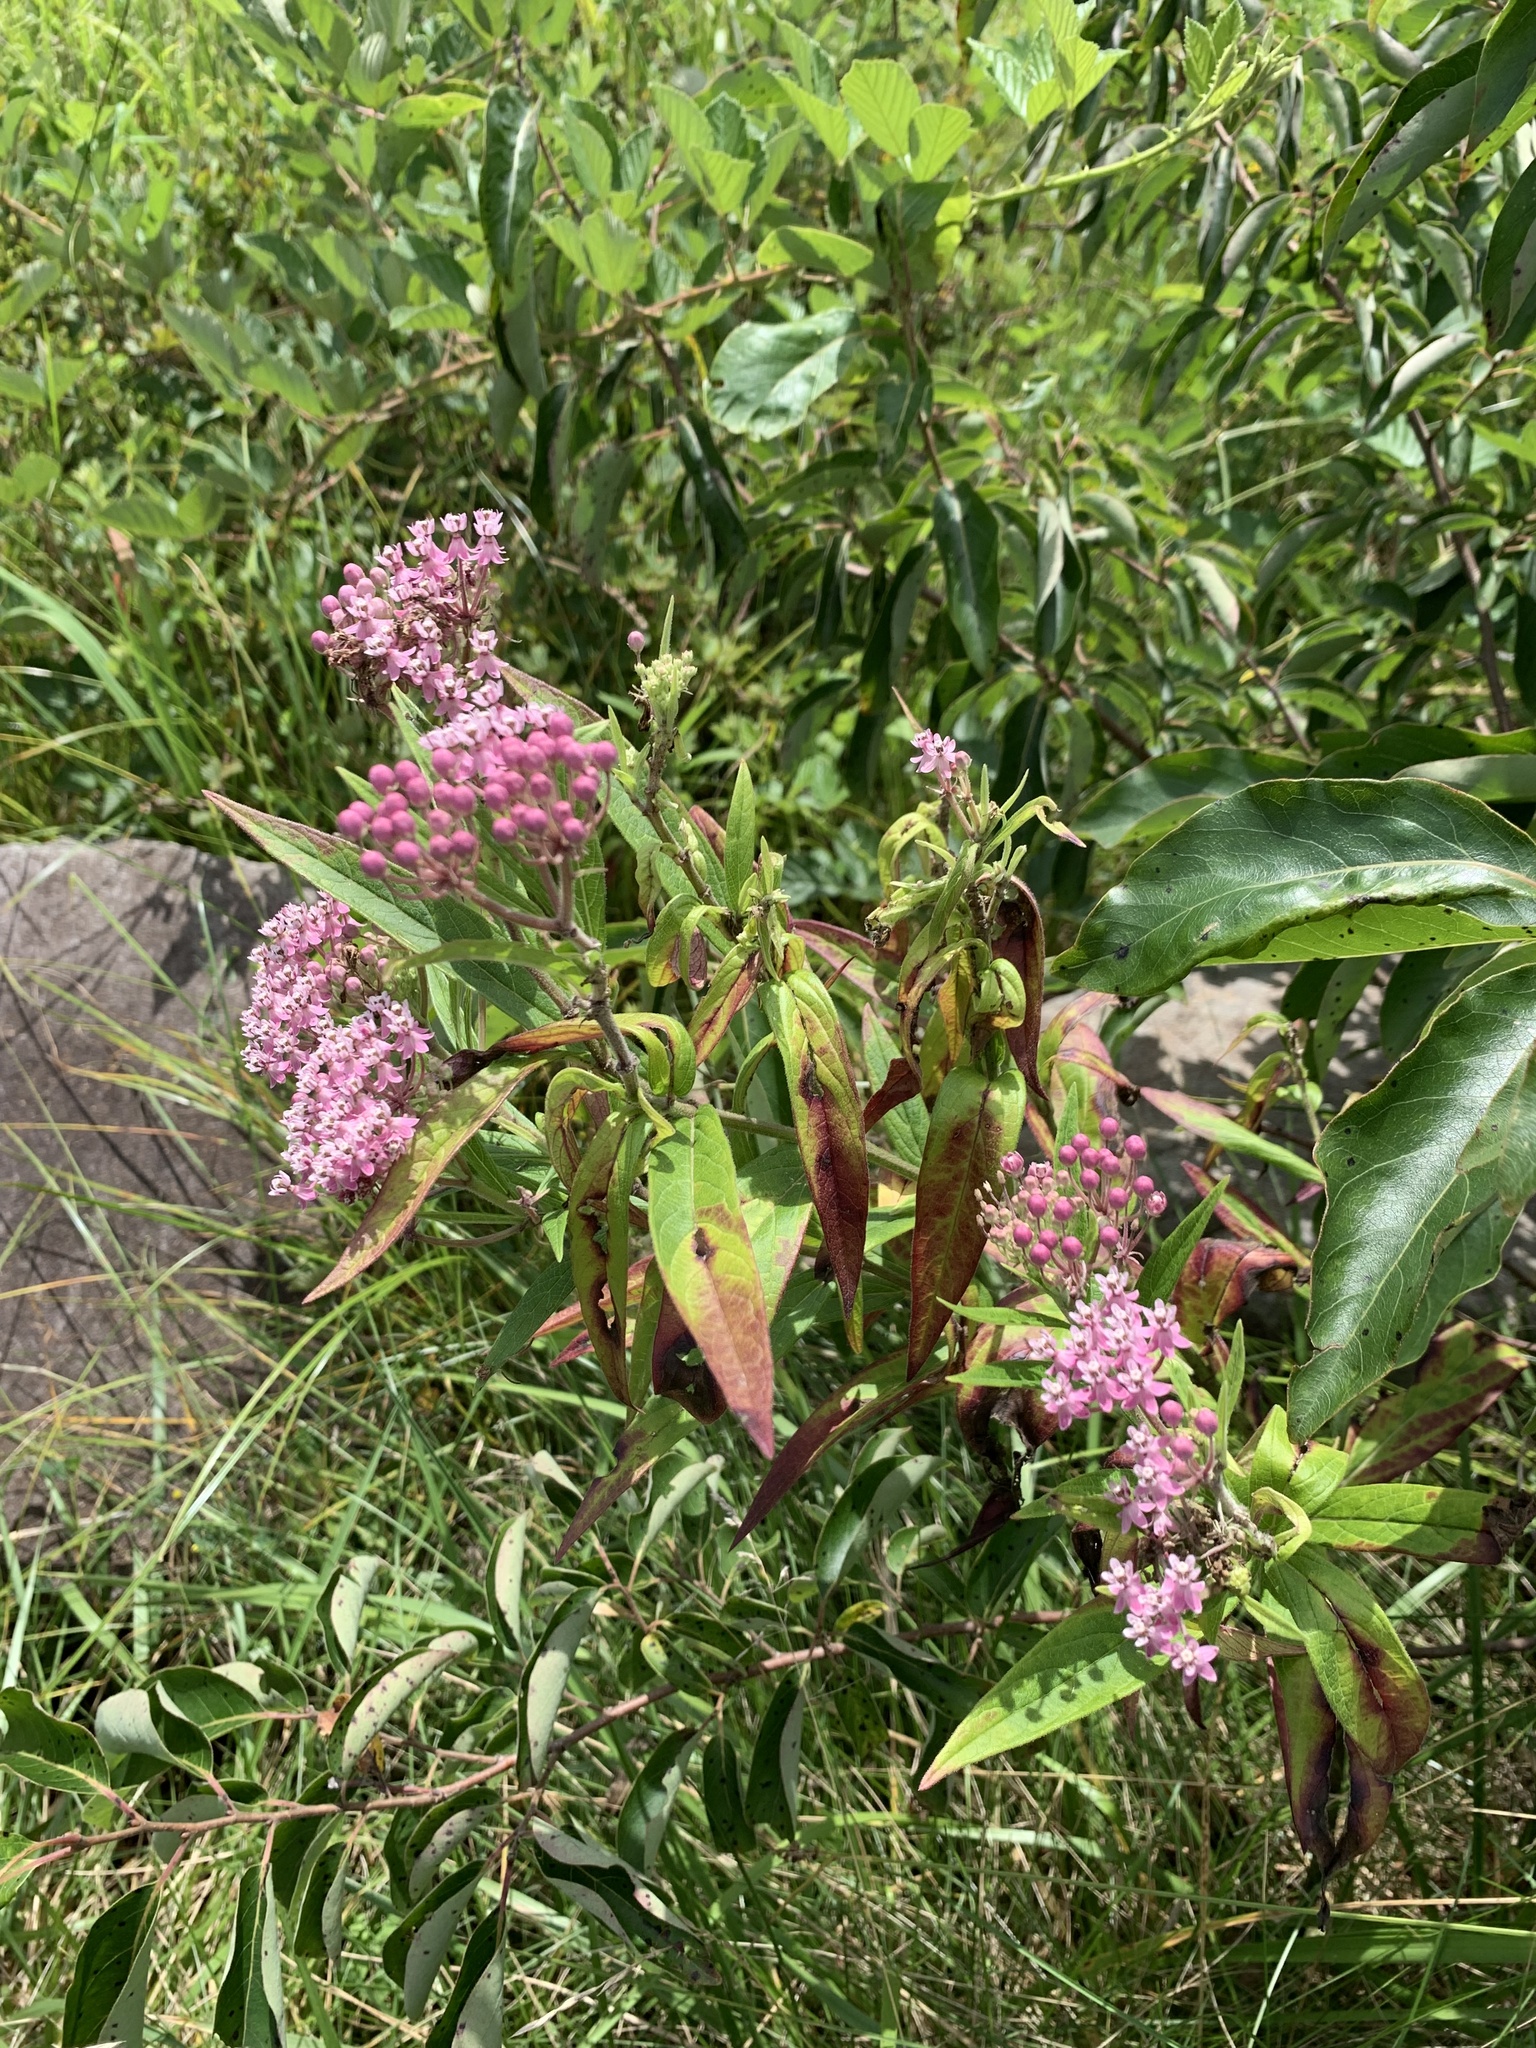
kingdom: Plantae
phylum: Tracheophyta
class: Magnoliopsida
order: Gentianales
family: Apocynaceae
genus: Asclepias
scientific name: Asclepias incarnata
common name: Swamp milkweed
